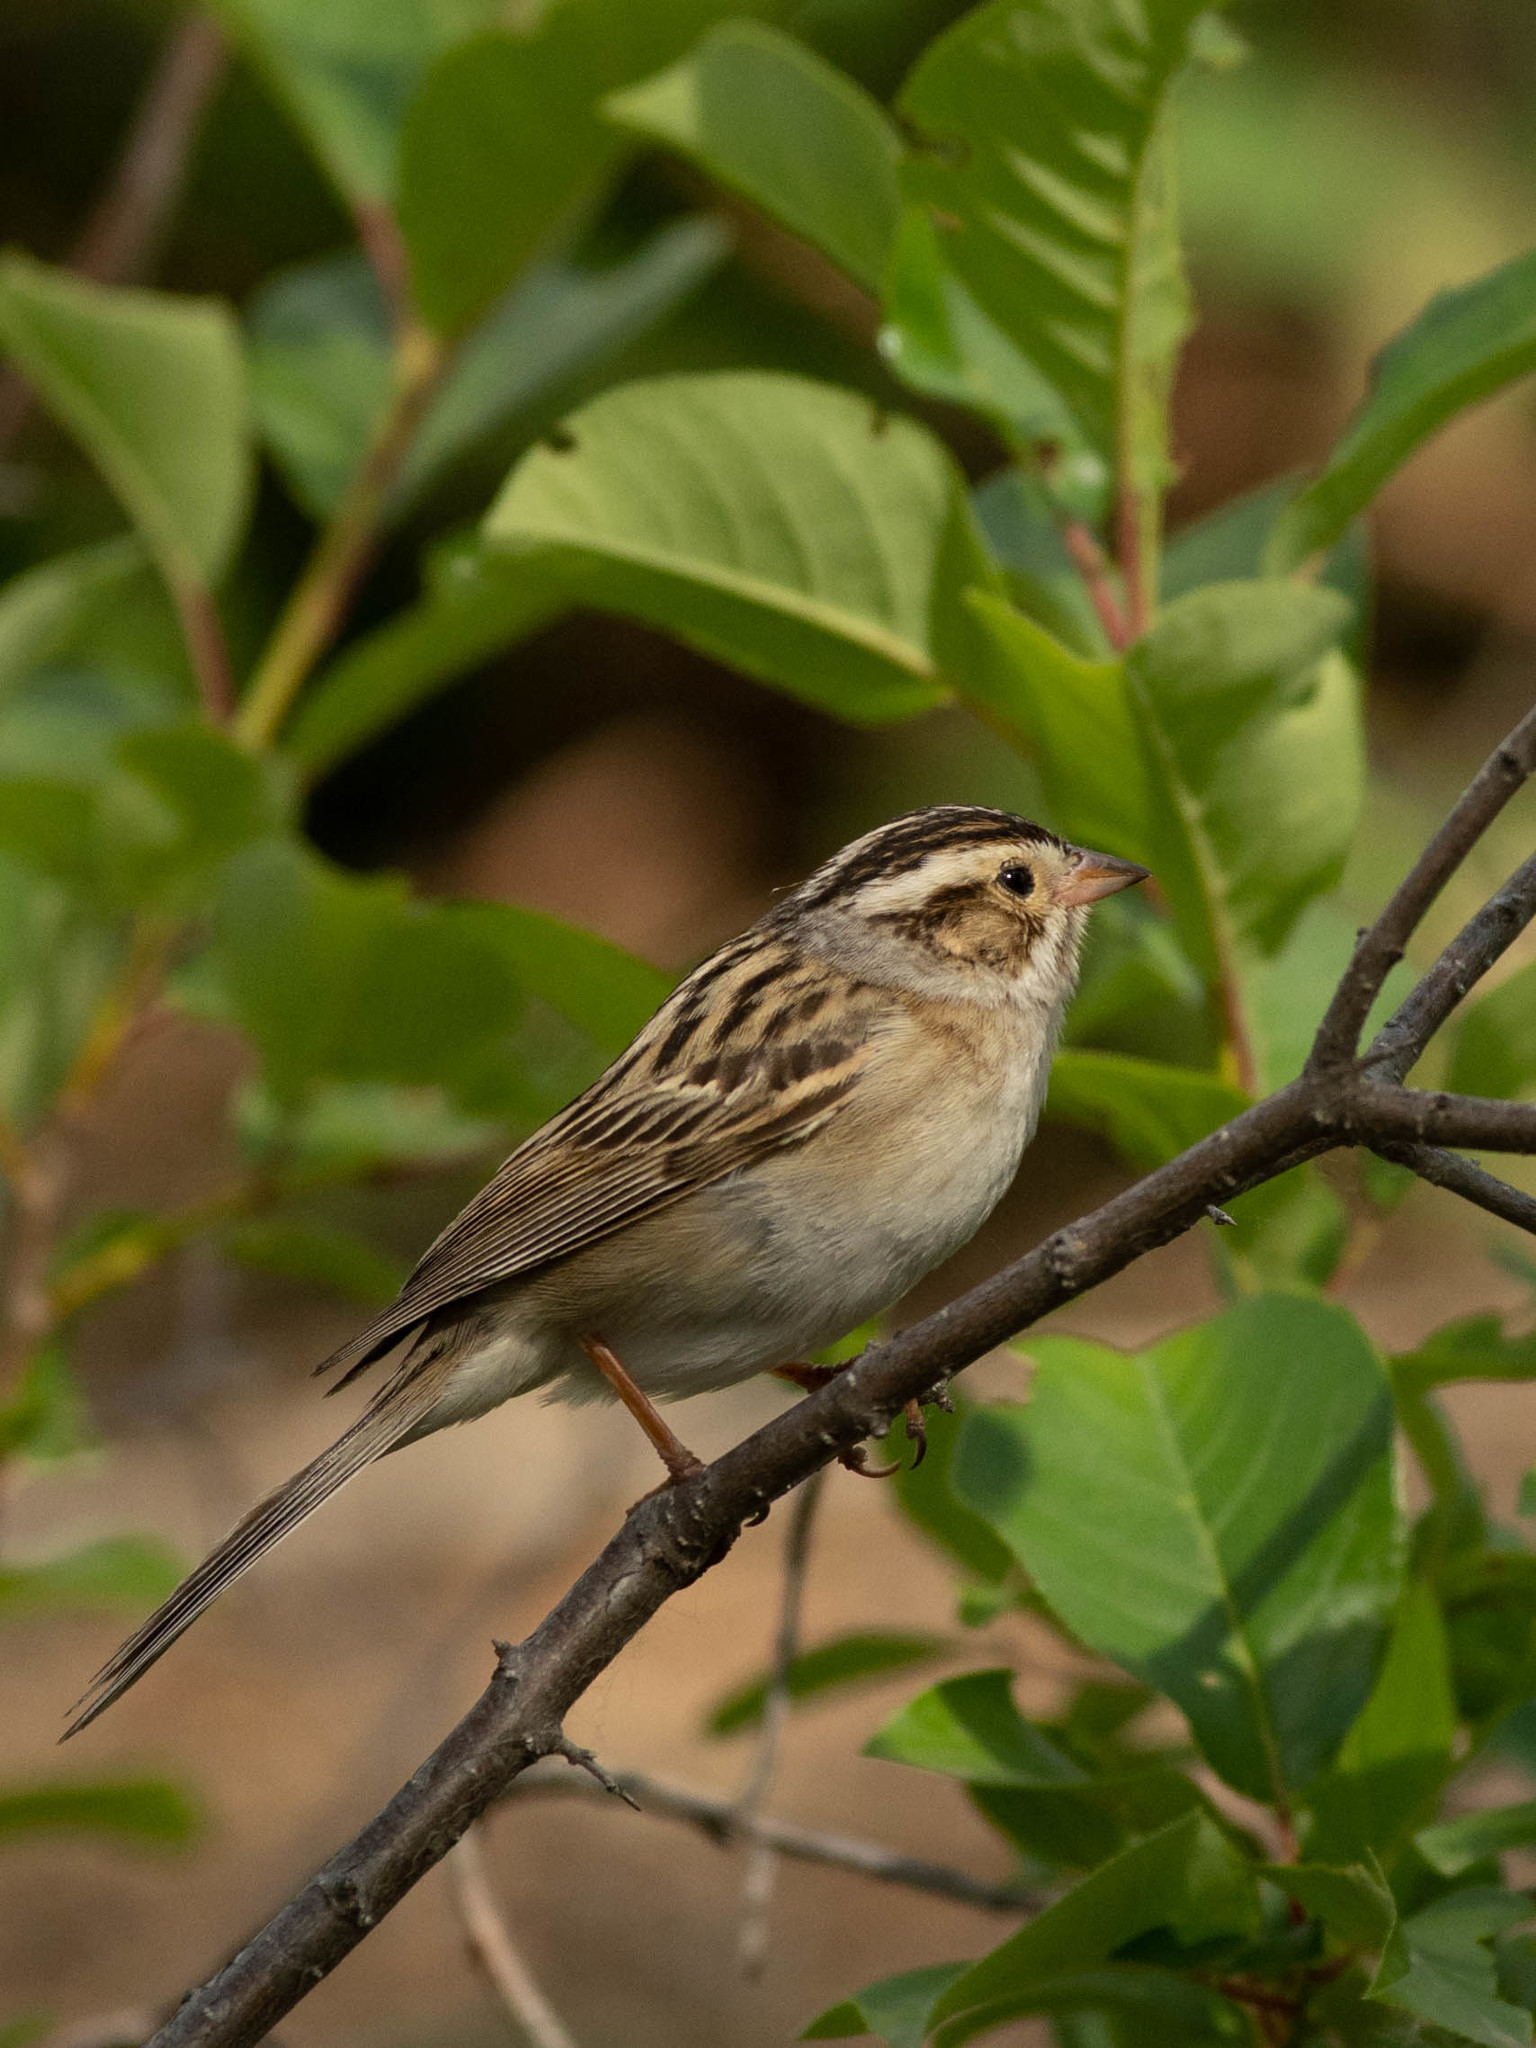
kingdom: Animalia
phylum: Chordata
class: Aves
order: Passeriformes
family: Passerellidae
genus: Spizella
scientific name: Spizella pallida
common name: Clay-colored sparrow
